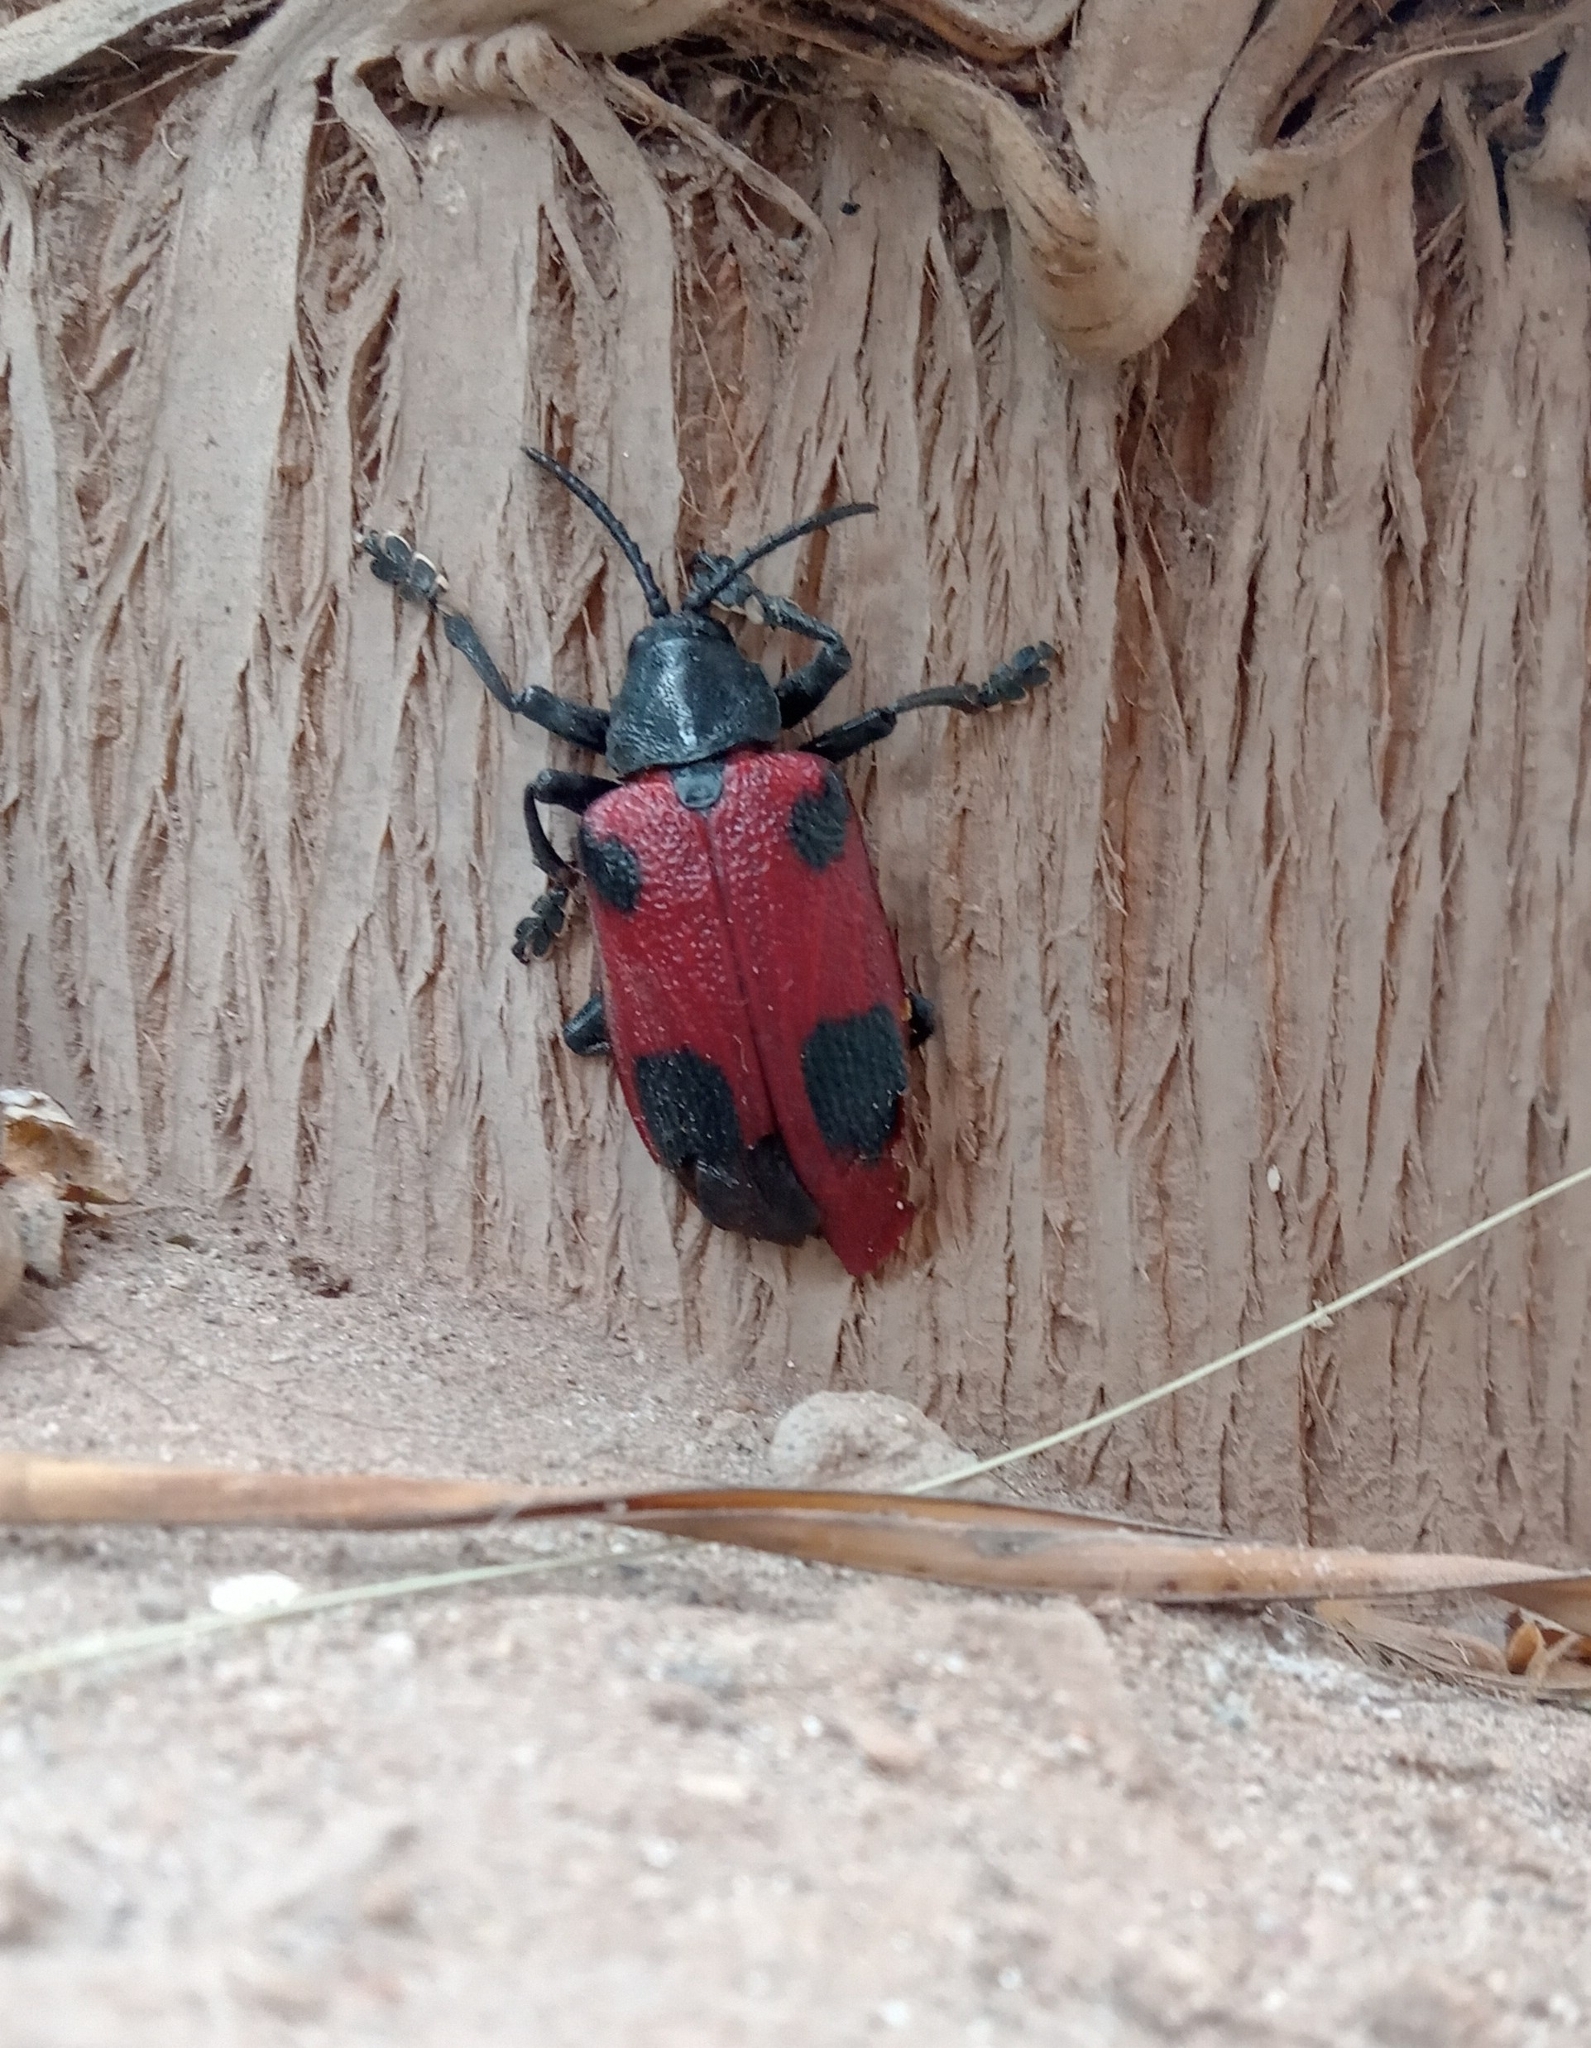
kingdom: Animalia
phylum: Arthropoda
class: Insecta
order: Coleoptera
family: Chrysomelidae
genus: Coraliomela
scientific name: Coraliomela quadrimaculata
